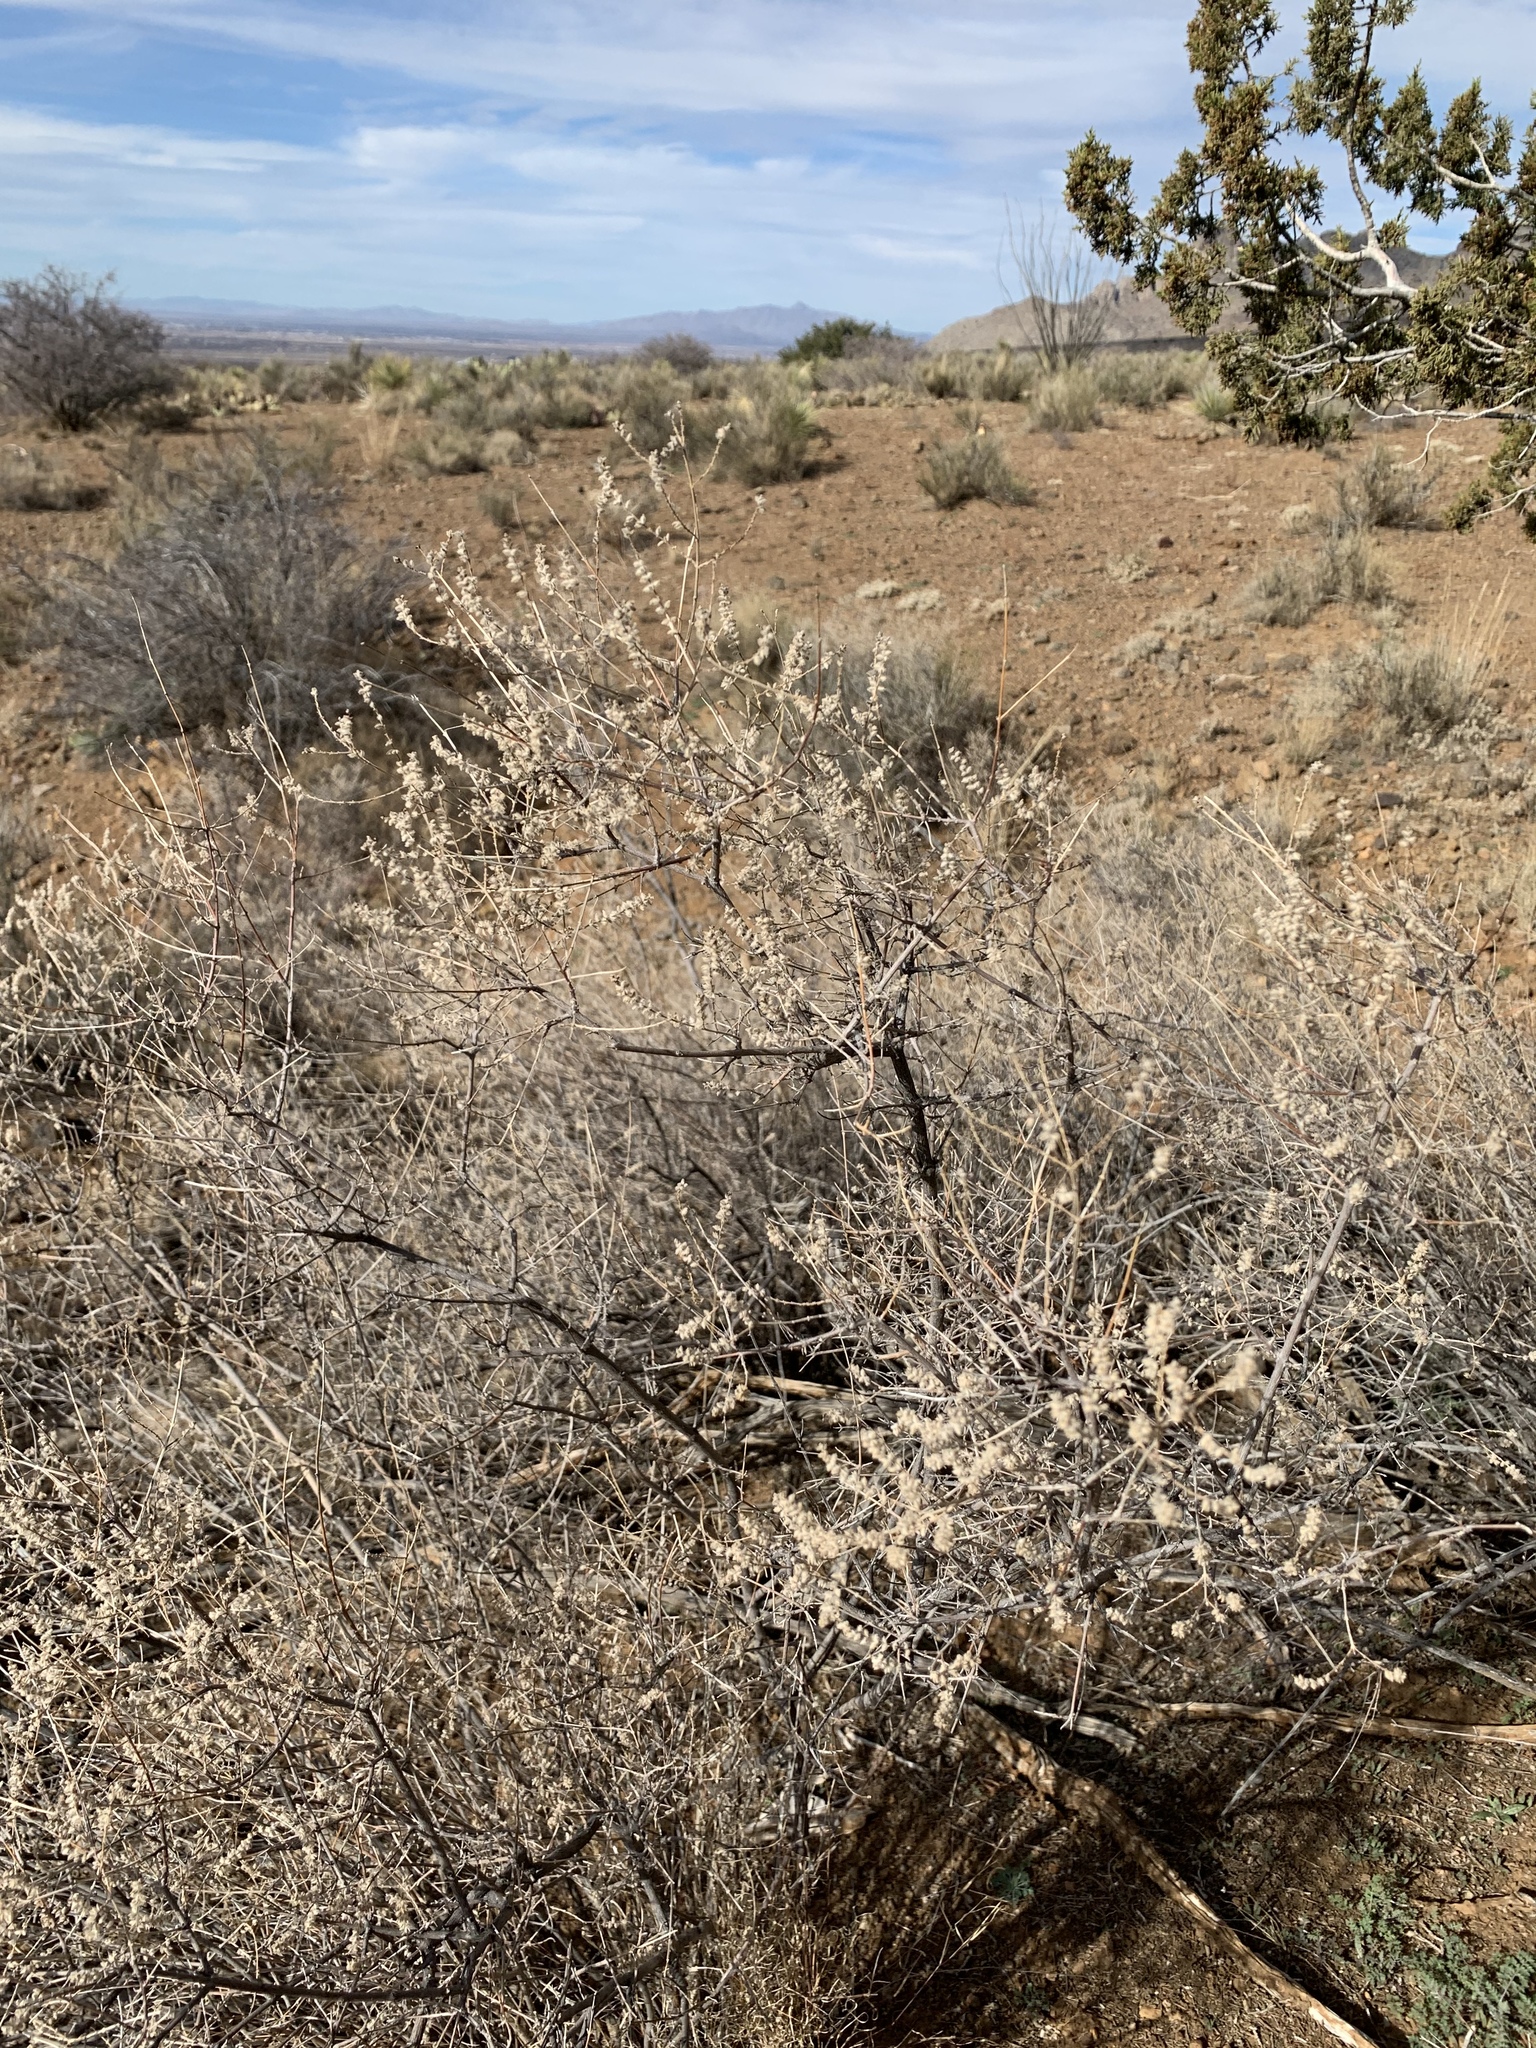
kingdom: Plantae
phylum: Tracheophyta
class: Magnoliopsida
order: Lamiales
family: Verbenaceae
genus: Aloysia
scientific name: Aloysia wrightii
